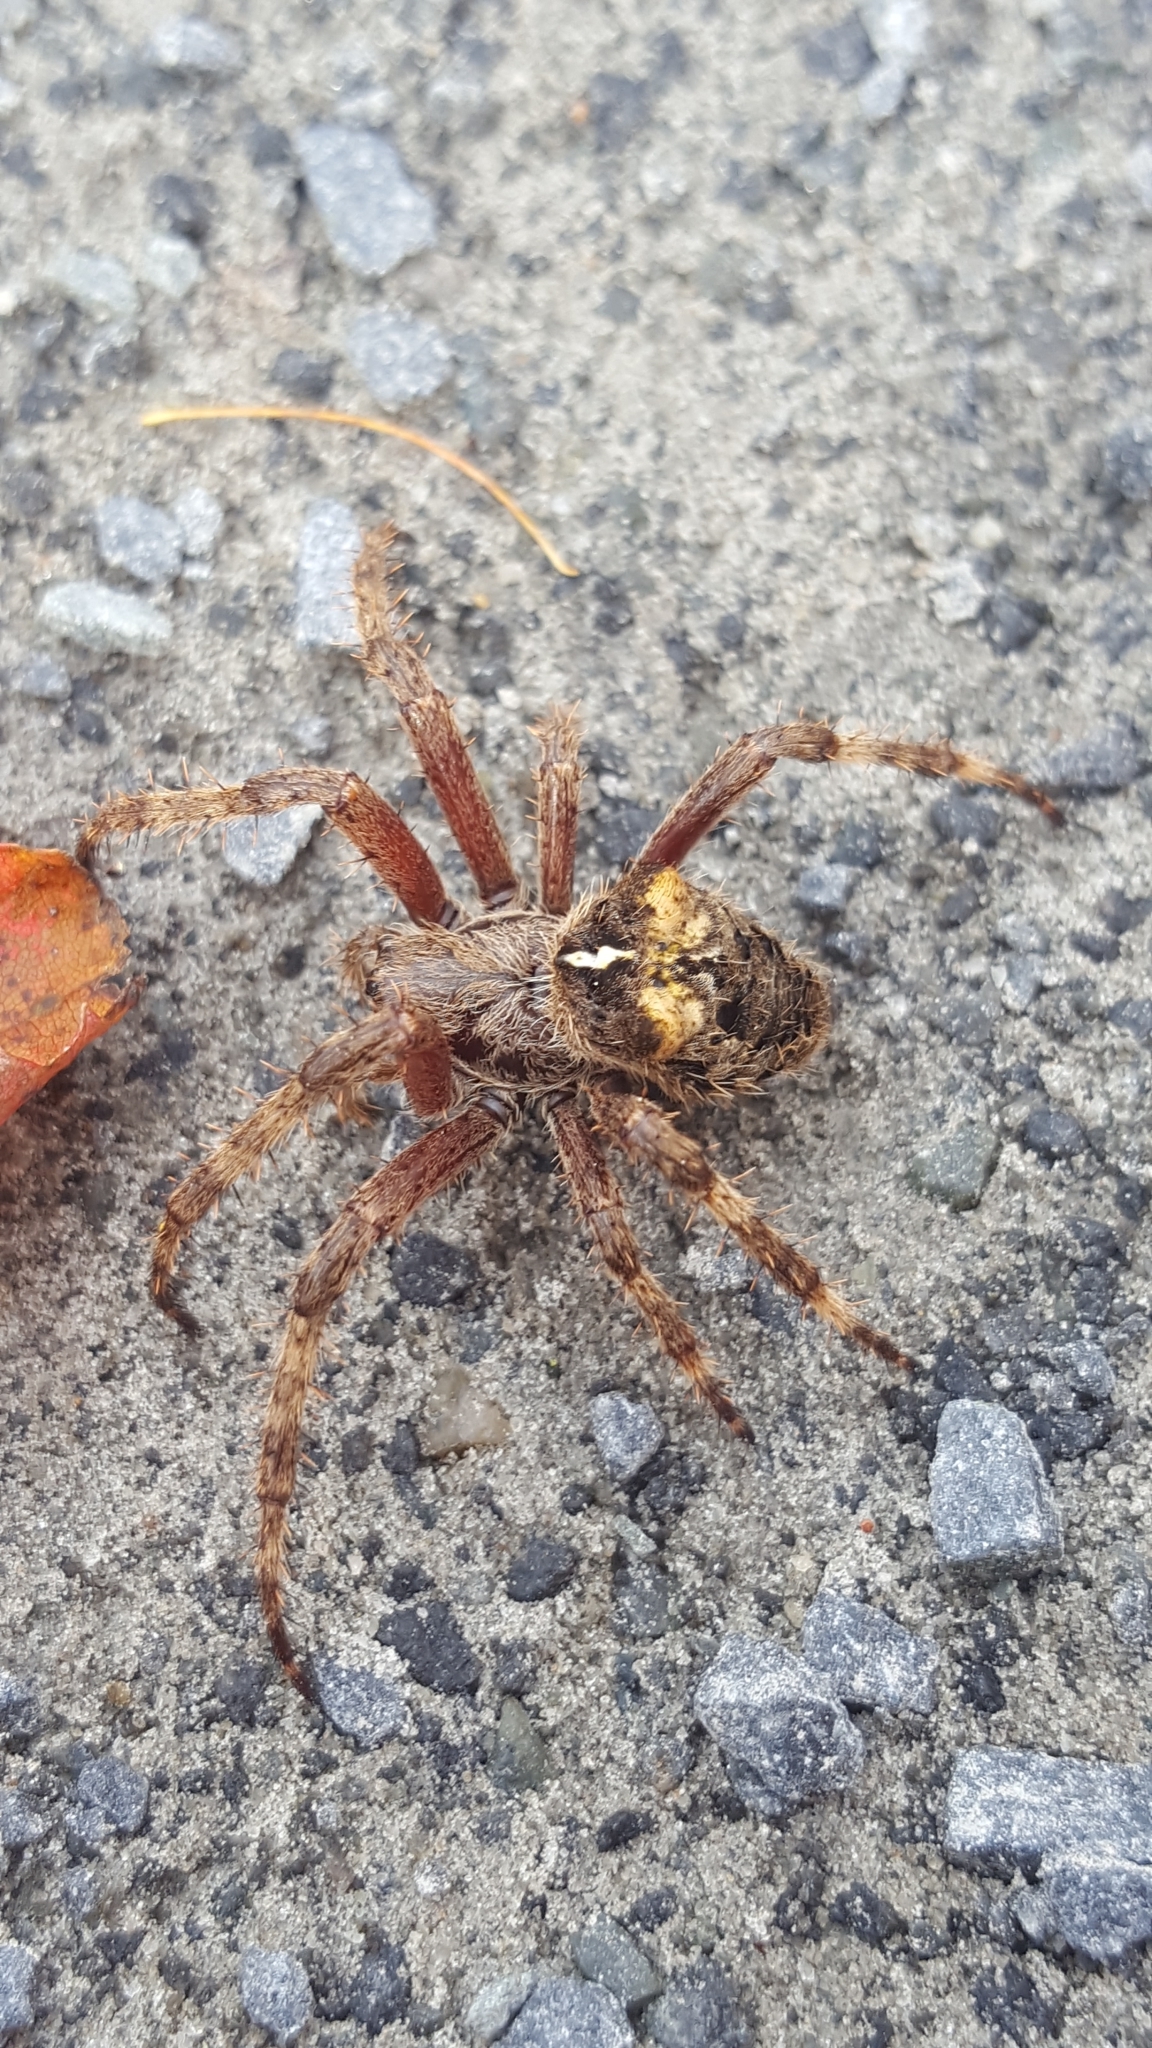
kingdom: Animalia
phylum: Arthropoda
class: Arachnida
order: Araneae
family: Araneidae
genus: Araneus
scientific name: Araneus saevus
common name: Fierce orbweaver
